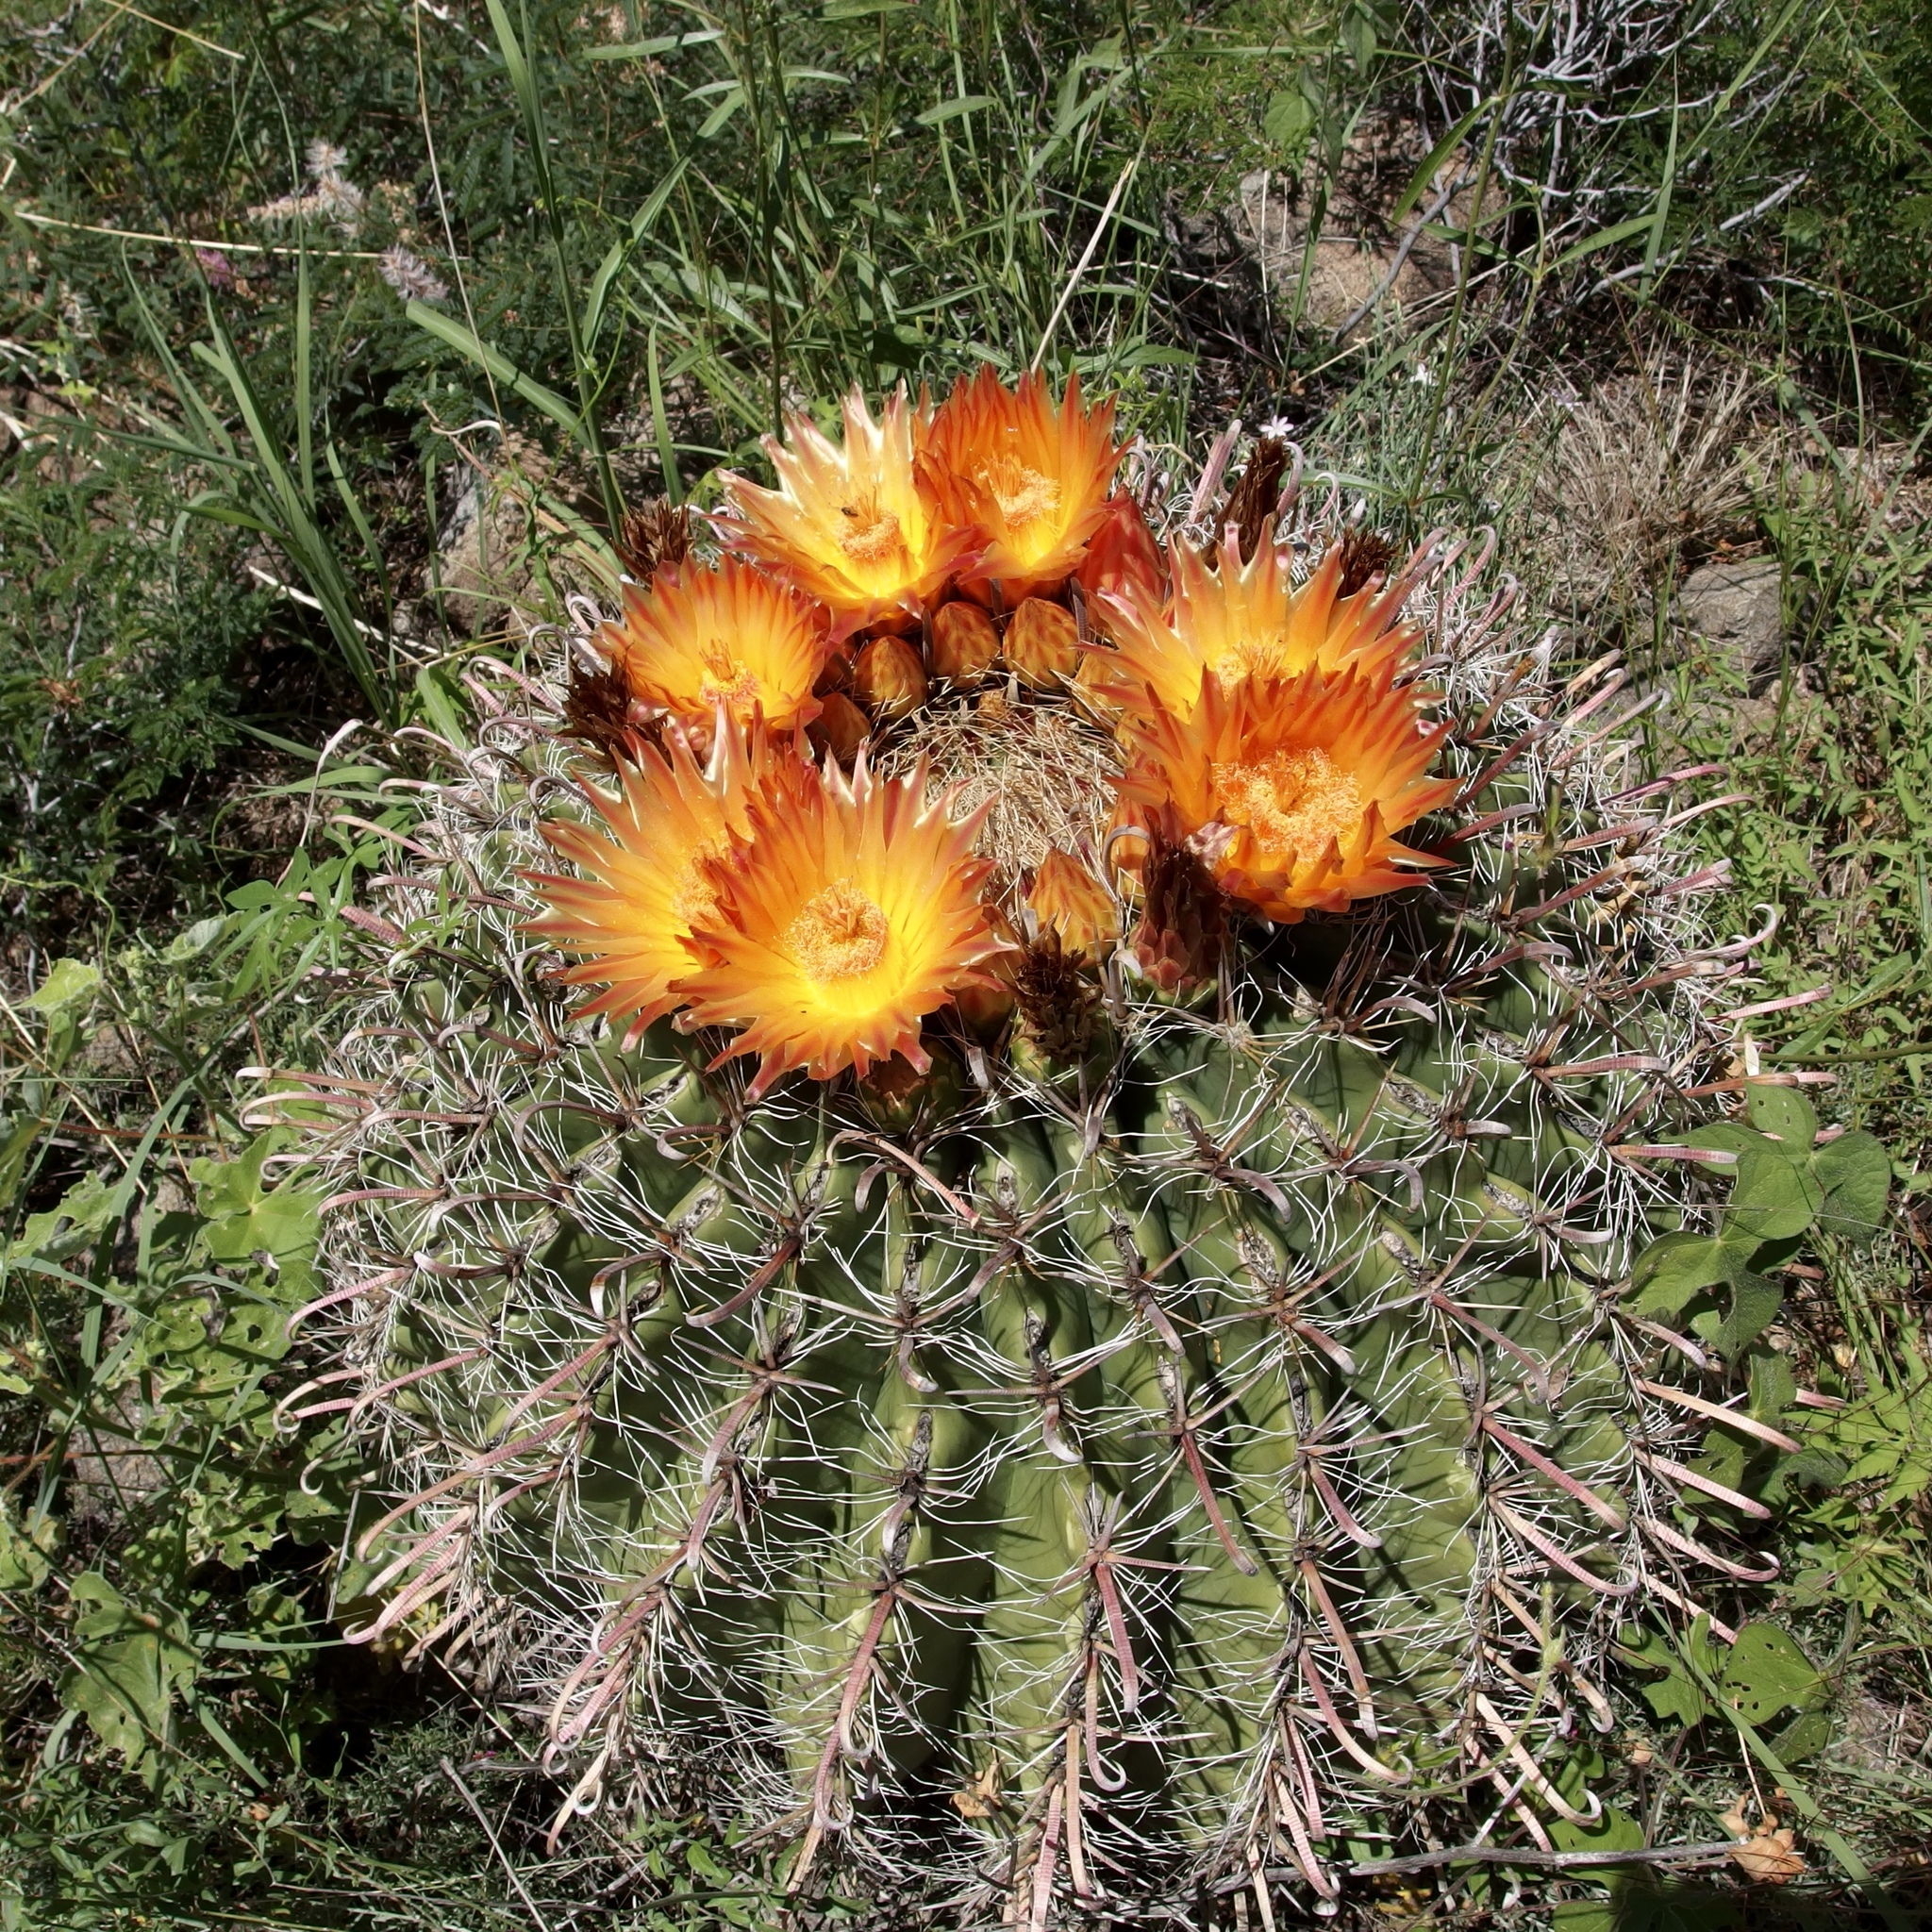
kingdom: Plantae
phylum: Tracheophyta
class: Magnoliopsida
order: Caryophyllales
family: Cactaceae
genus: Ferocactus
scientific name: Ferocactus wislizeni
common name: Candy barrel cactus
